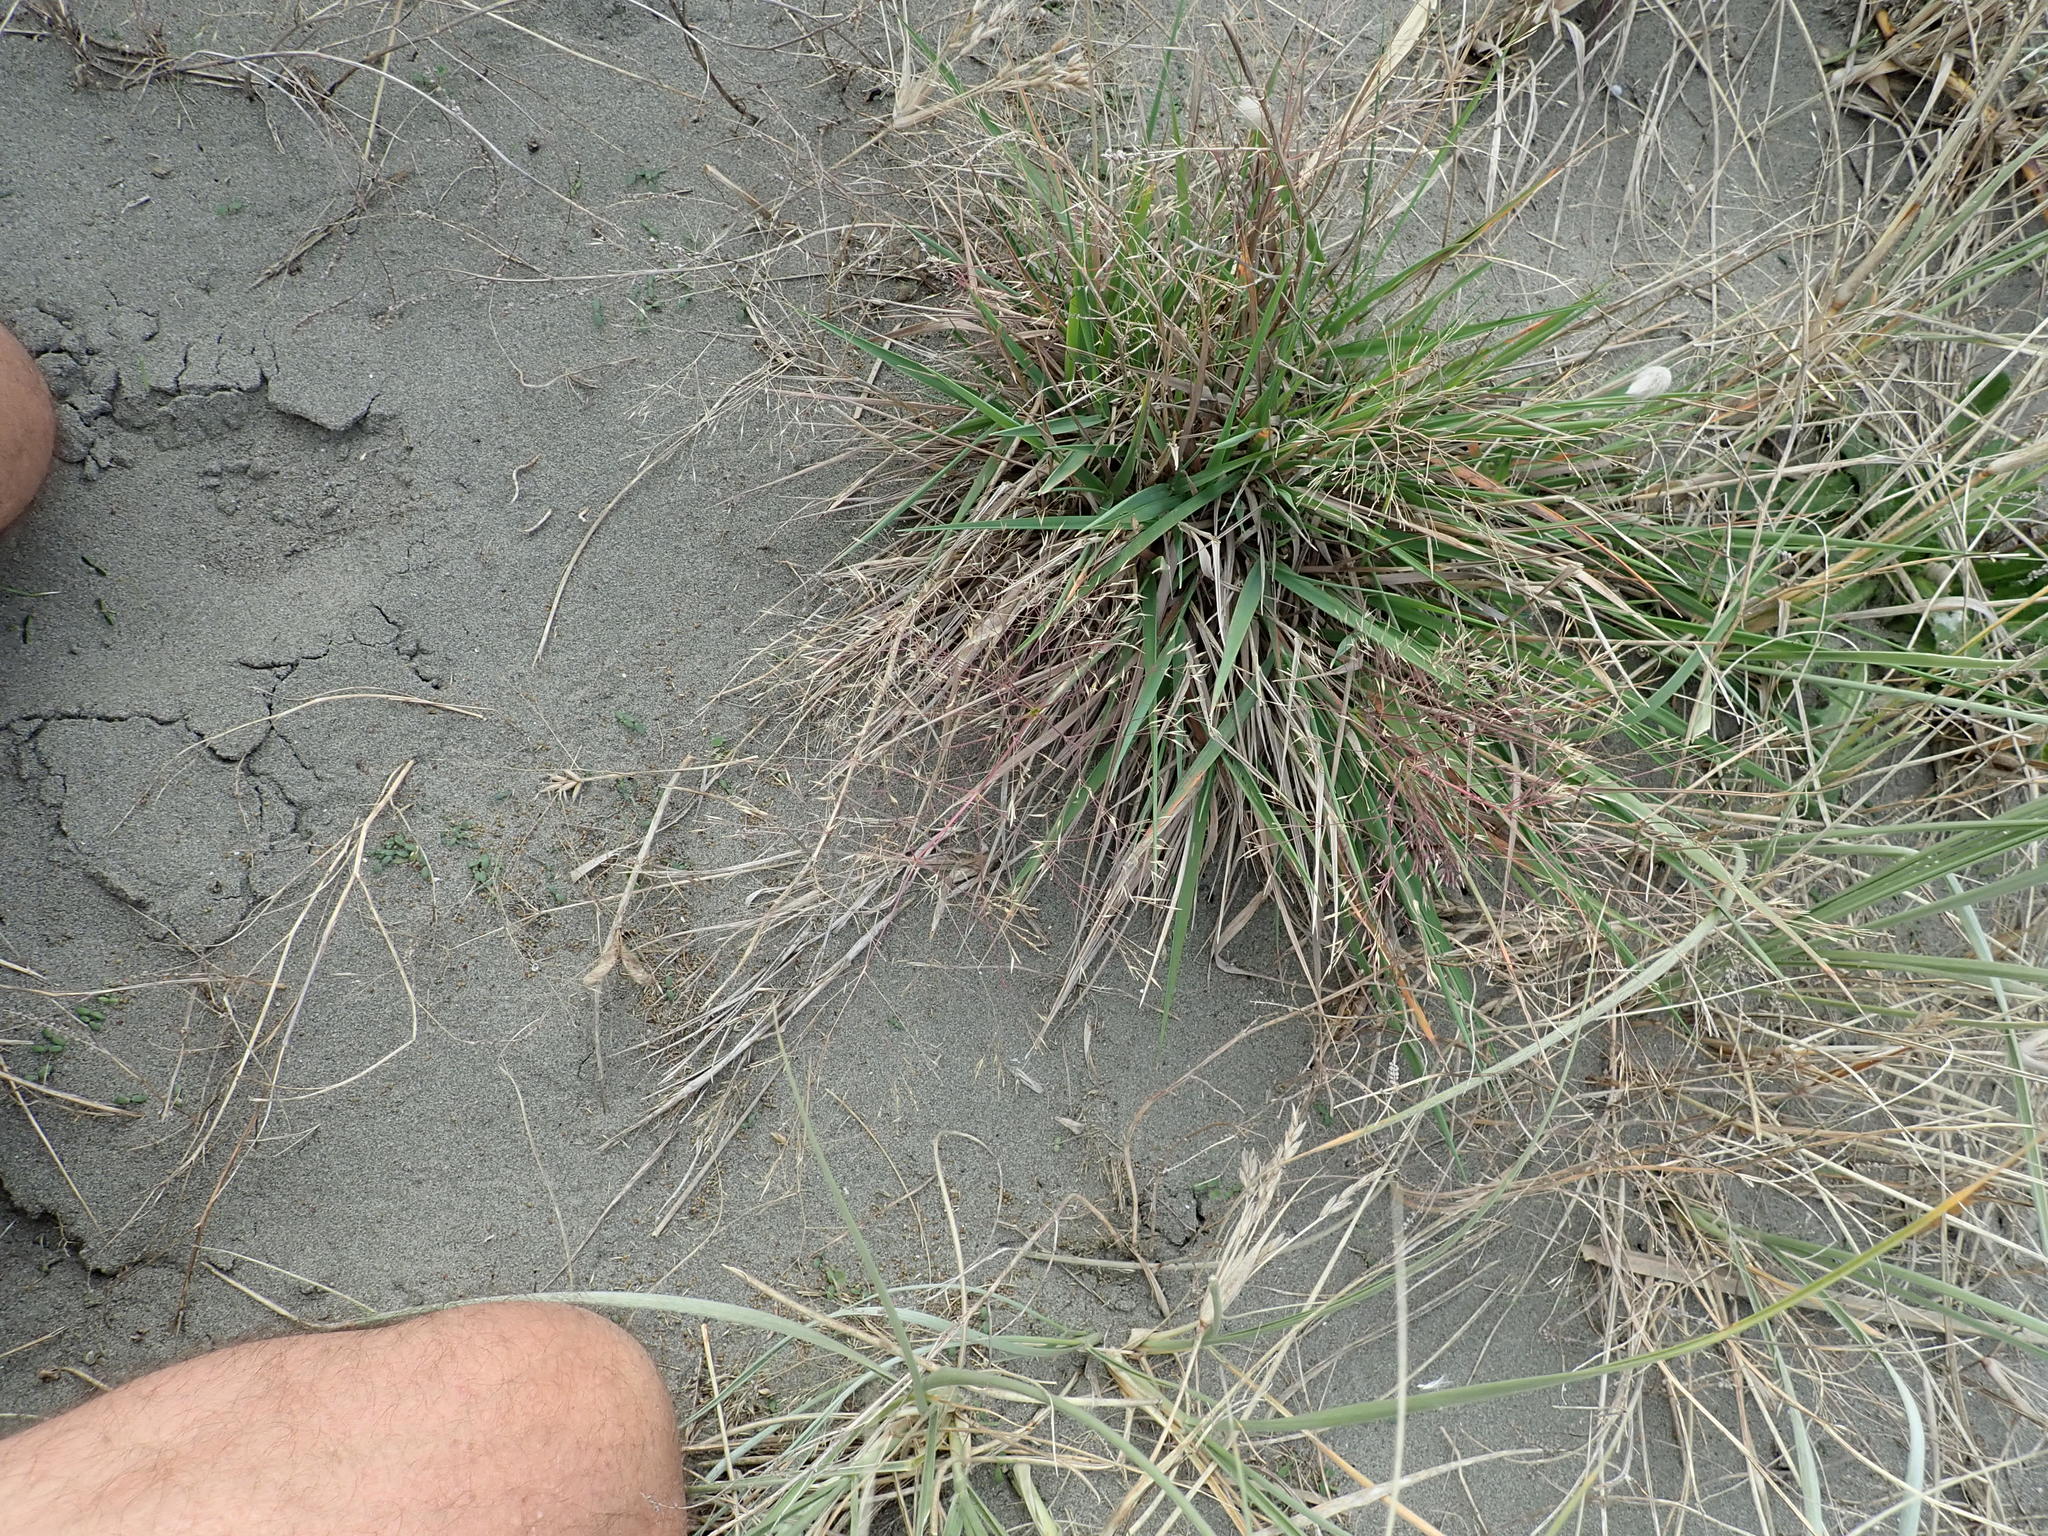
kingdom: Plantae
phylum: Tracheophyta
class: Liliopsida
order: Poales
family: Poaceae
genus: Lachnagrostis
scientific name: Lachnagrostis billardierei
